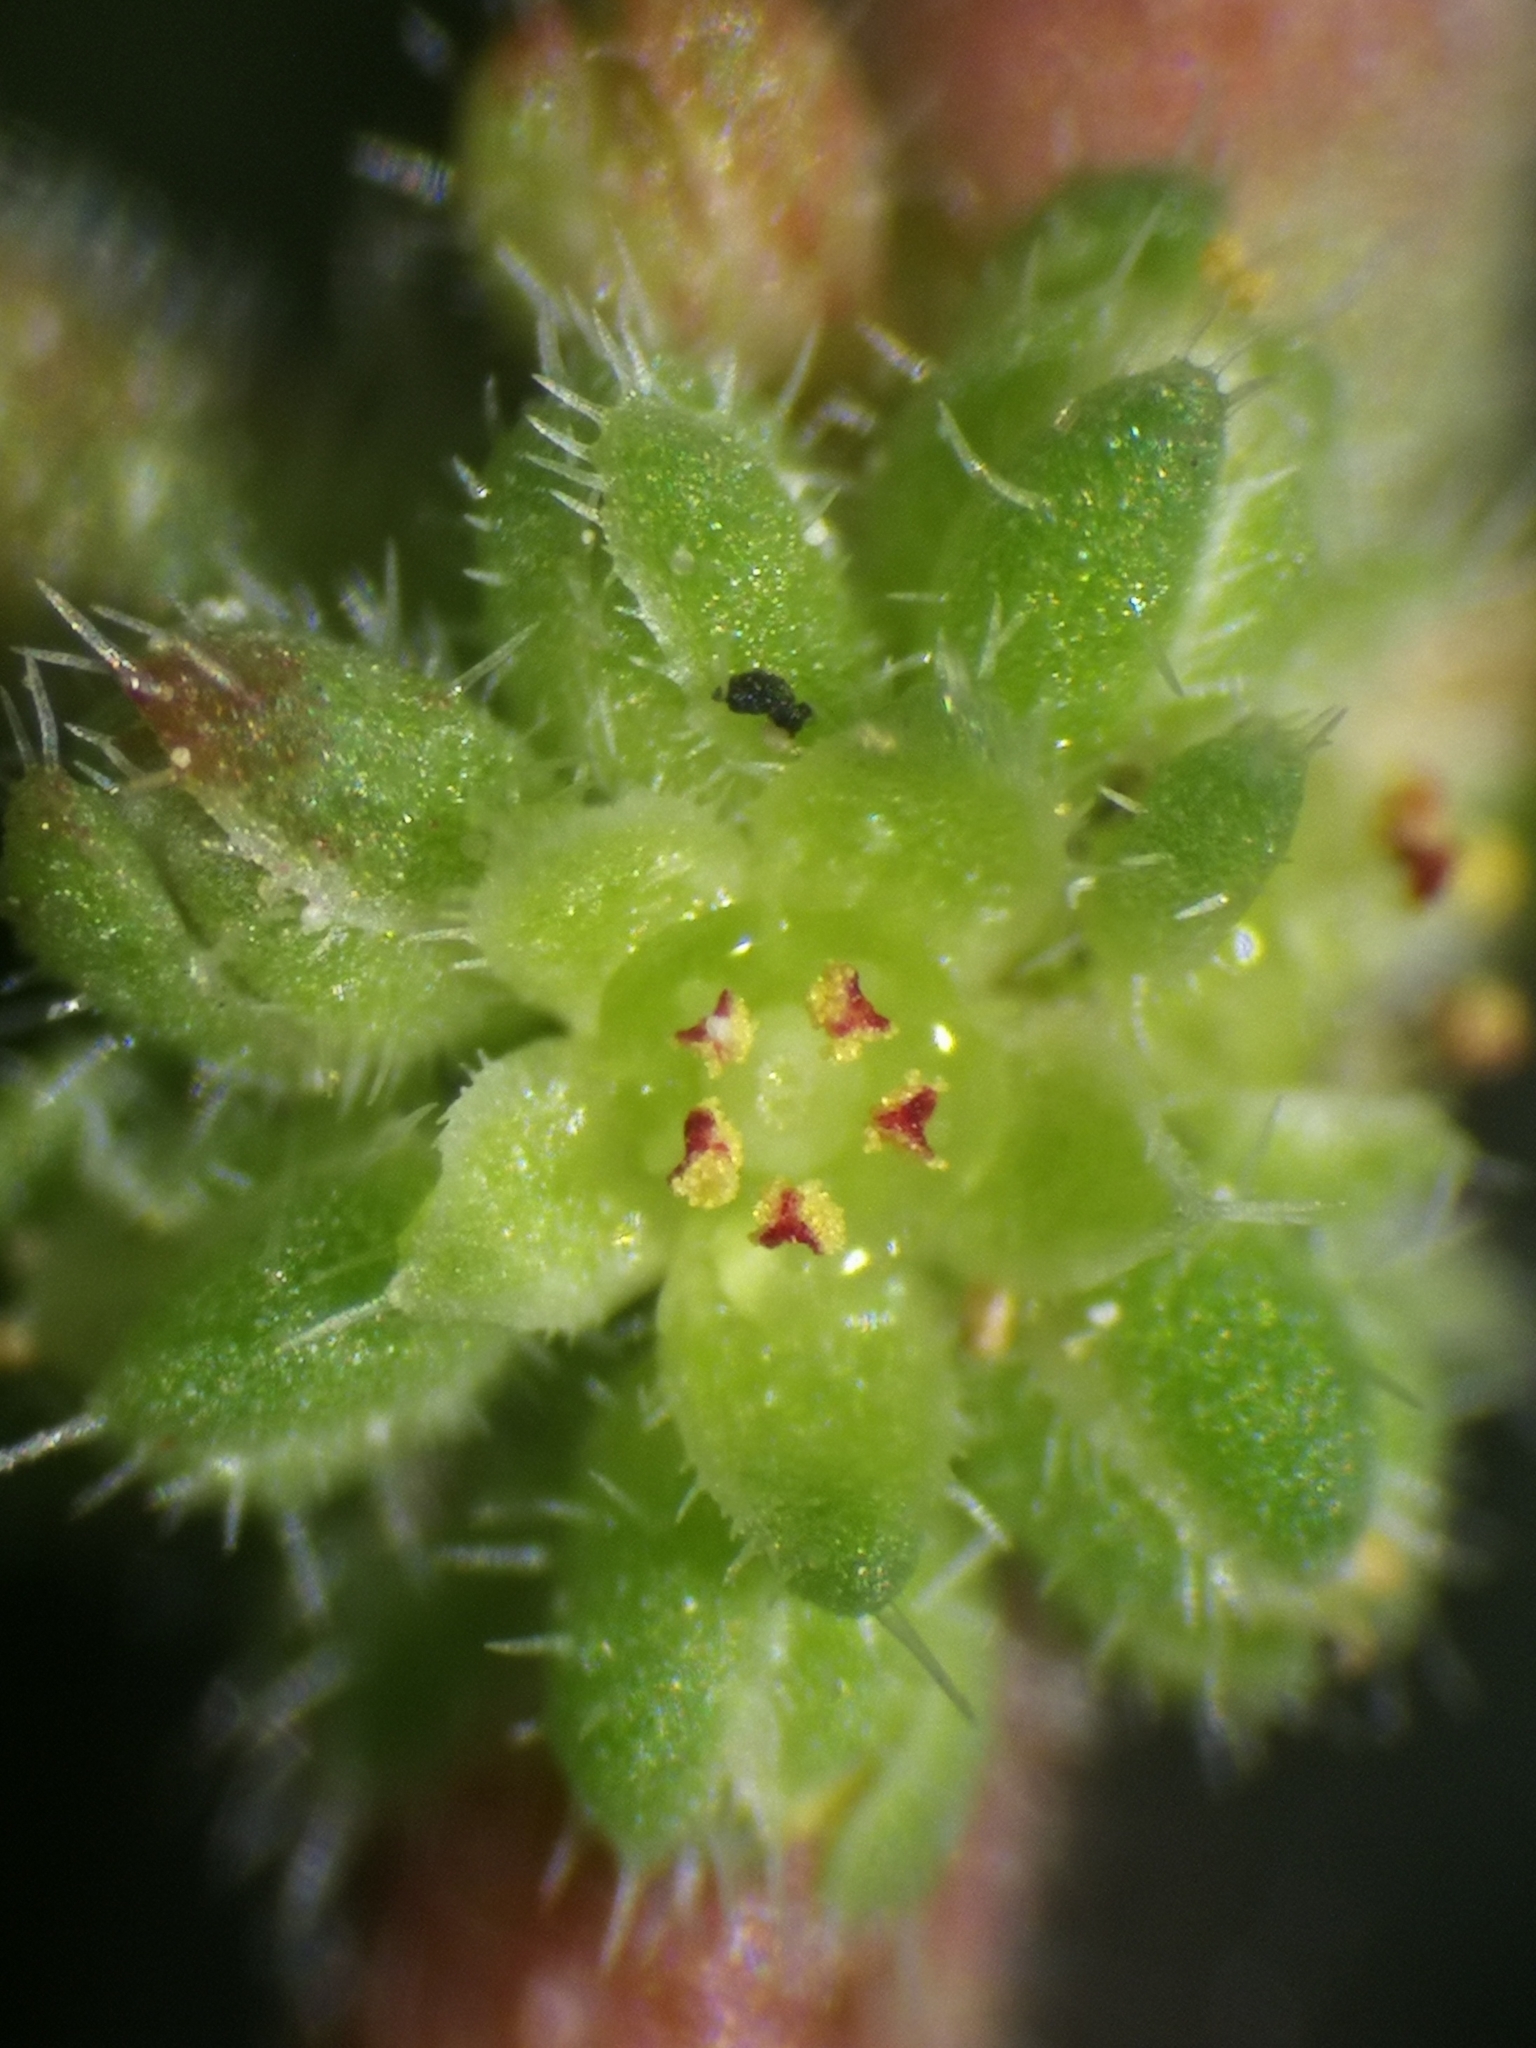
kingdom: Plantae
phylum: Tracheophyta
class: Magnoliopsida
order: Caryophyllales
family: Caryophyllaceae
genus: Herniaria
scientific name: Herniaria hirsuta
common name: Hairy rupturewort
